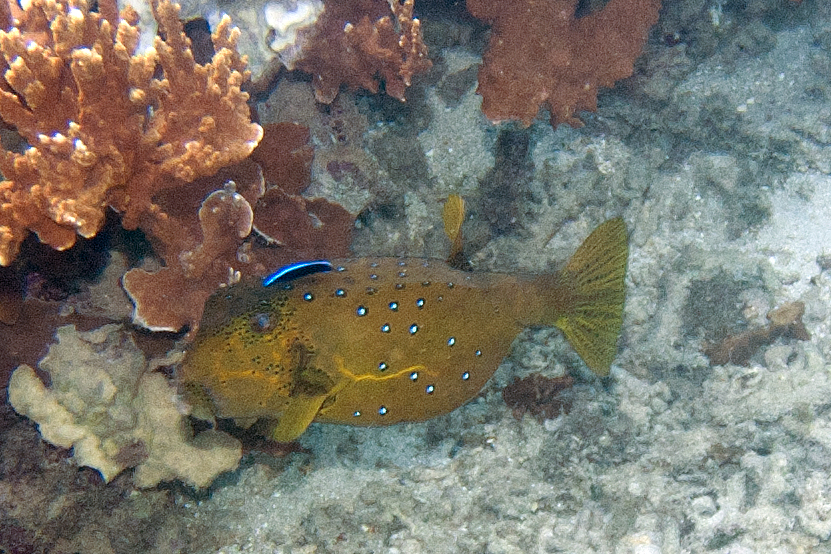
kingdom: Animalia
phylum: Chordata
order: Perciformes
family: Labridae
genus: Labroides
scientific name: Labroides dimidiatus
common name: Blue diesel wrasse
